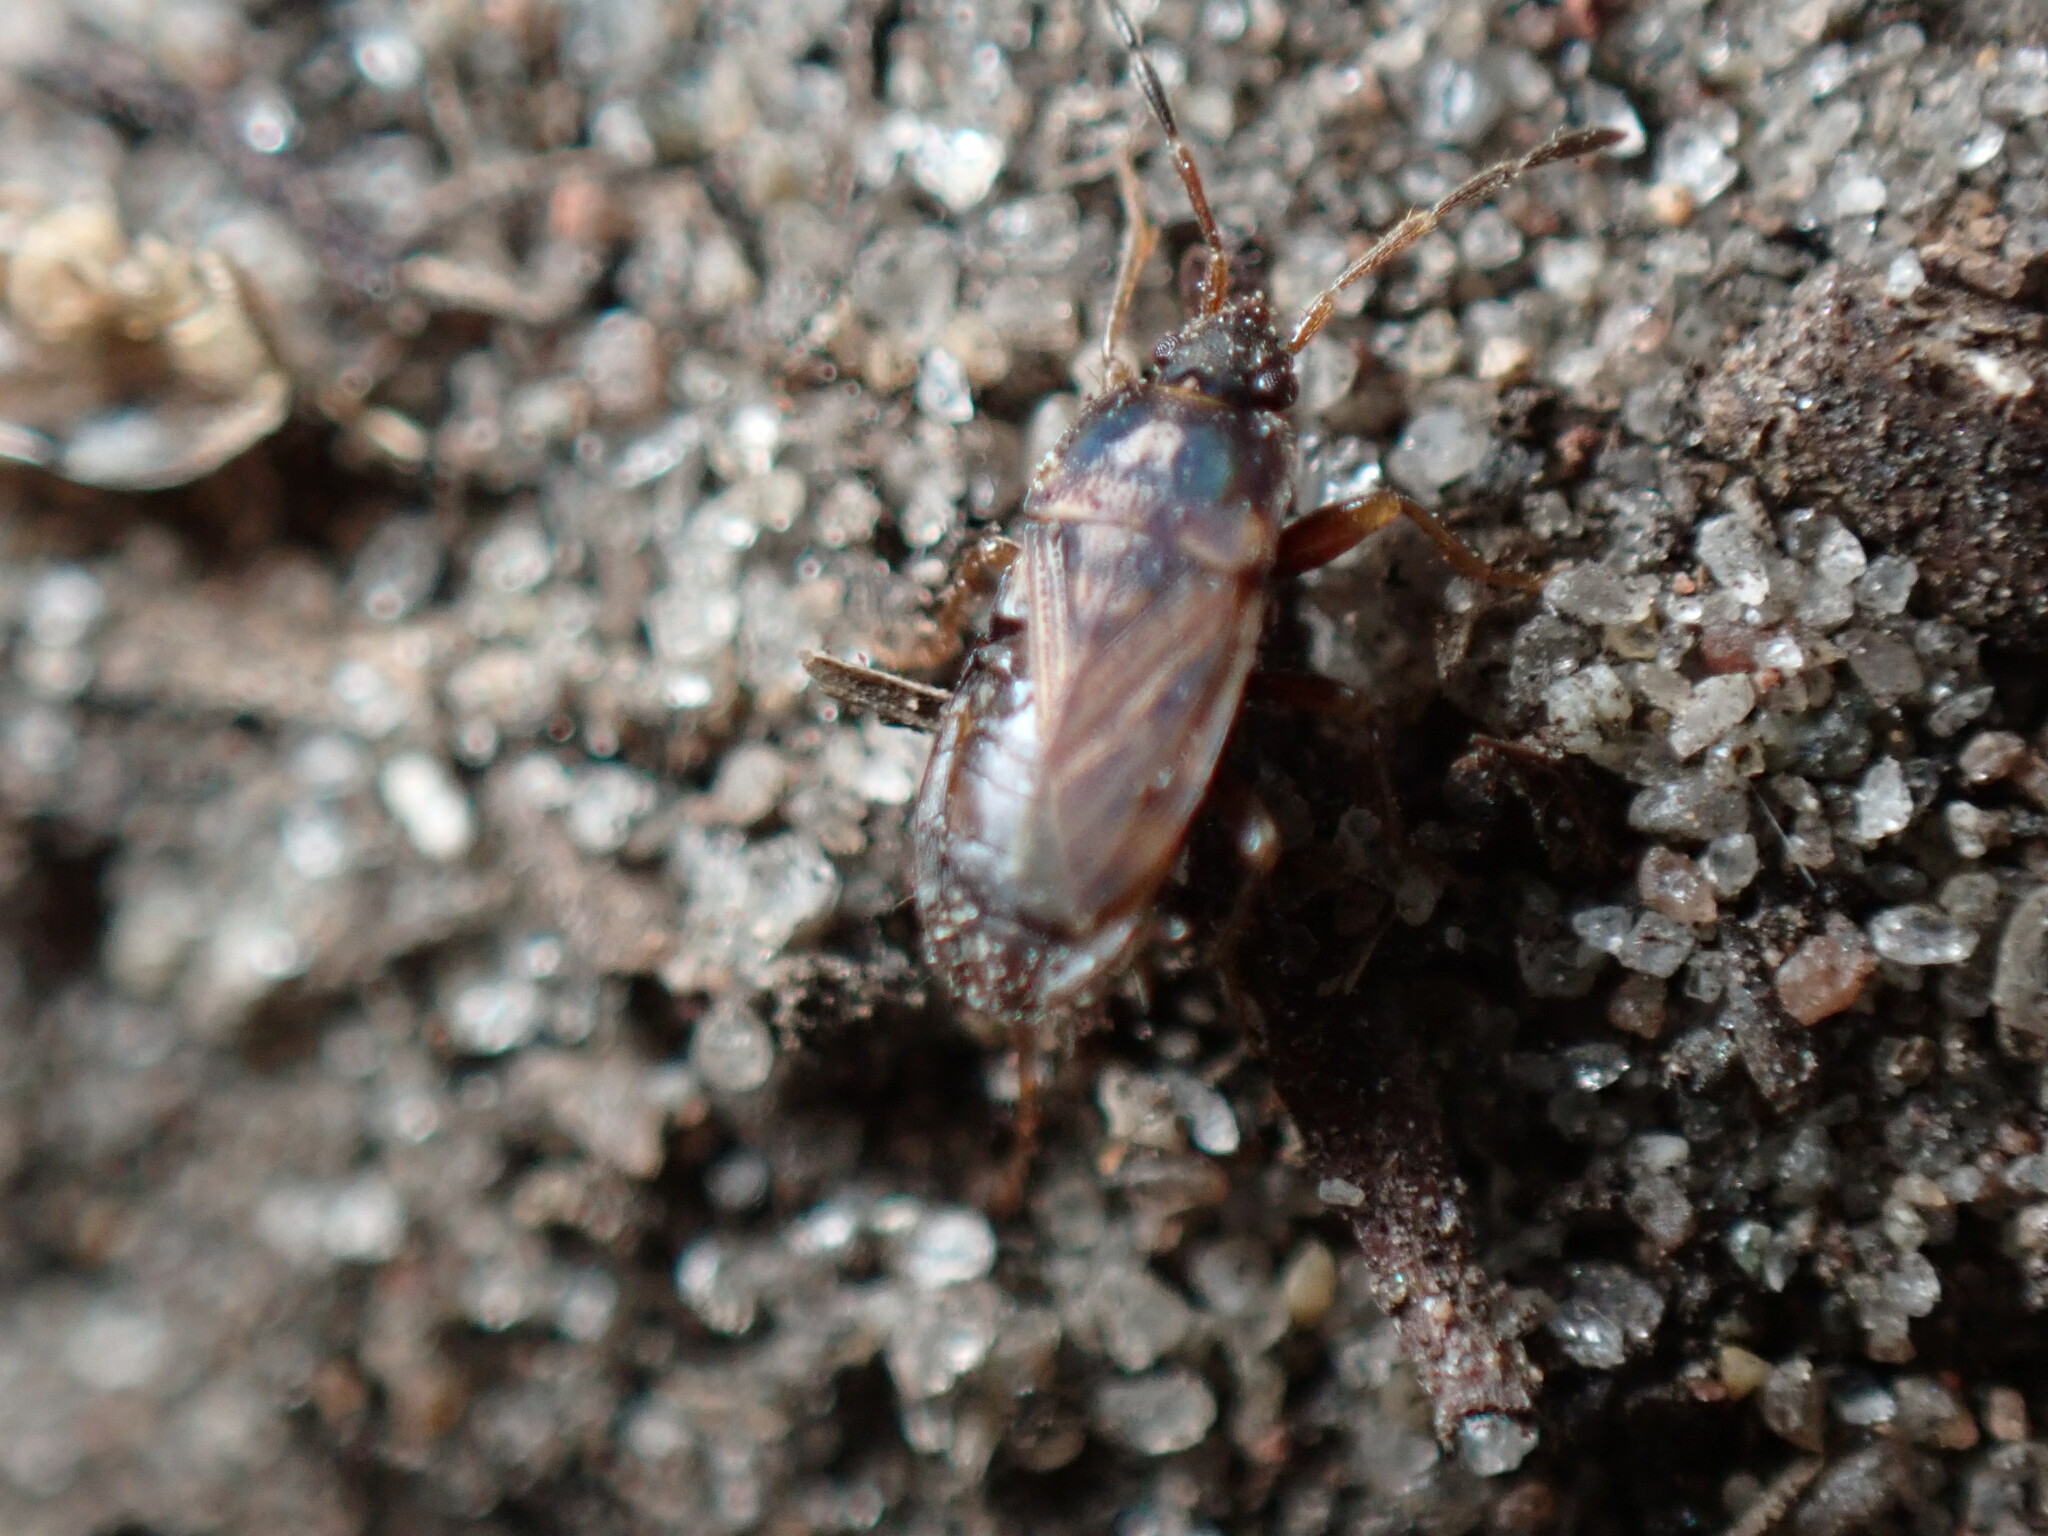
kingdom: Animalia
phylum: Arthropoda
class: Insecta
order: Hemiptera
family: Rhyparochromidae
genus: Cryphula
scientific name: Cryphula trimaculata
